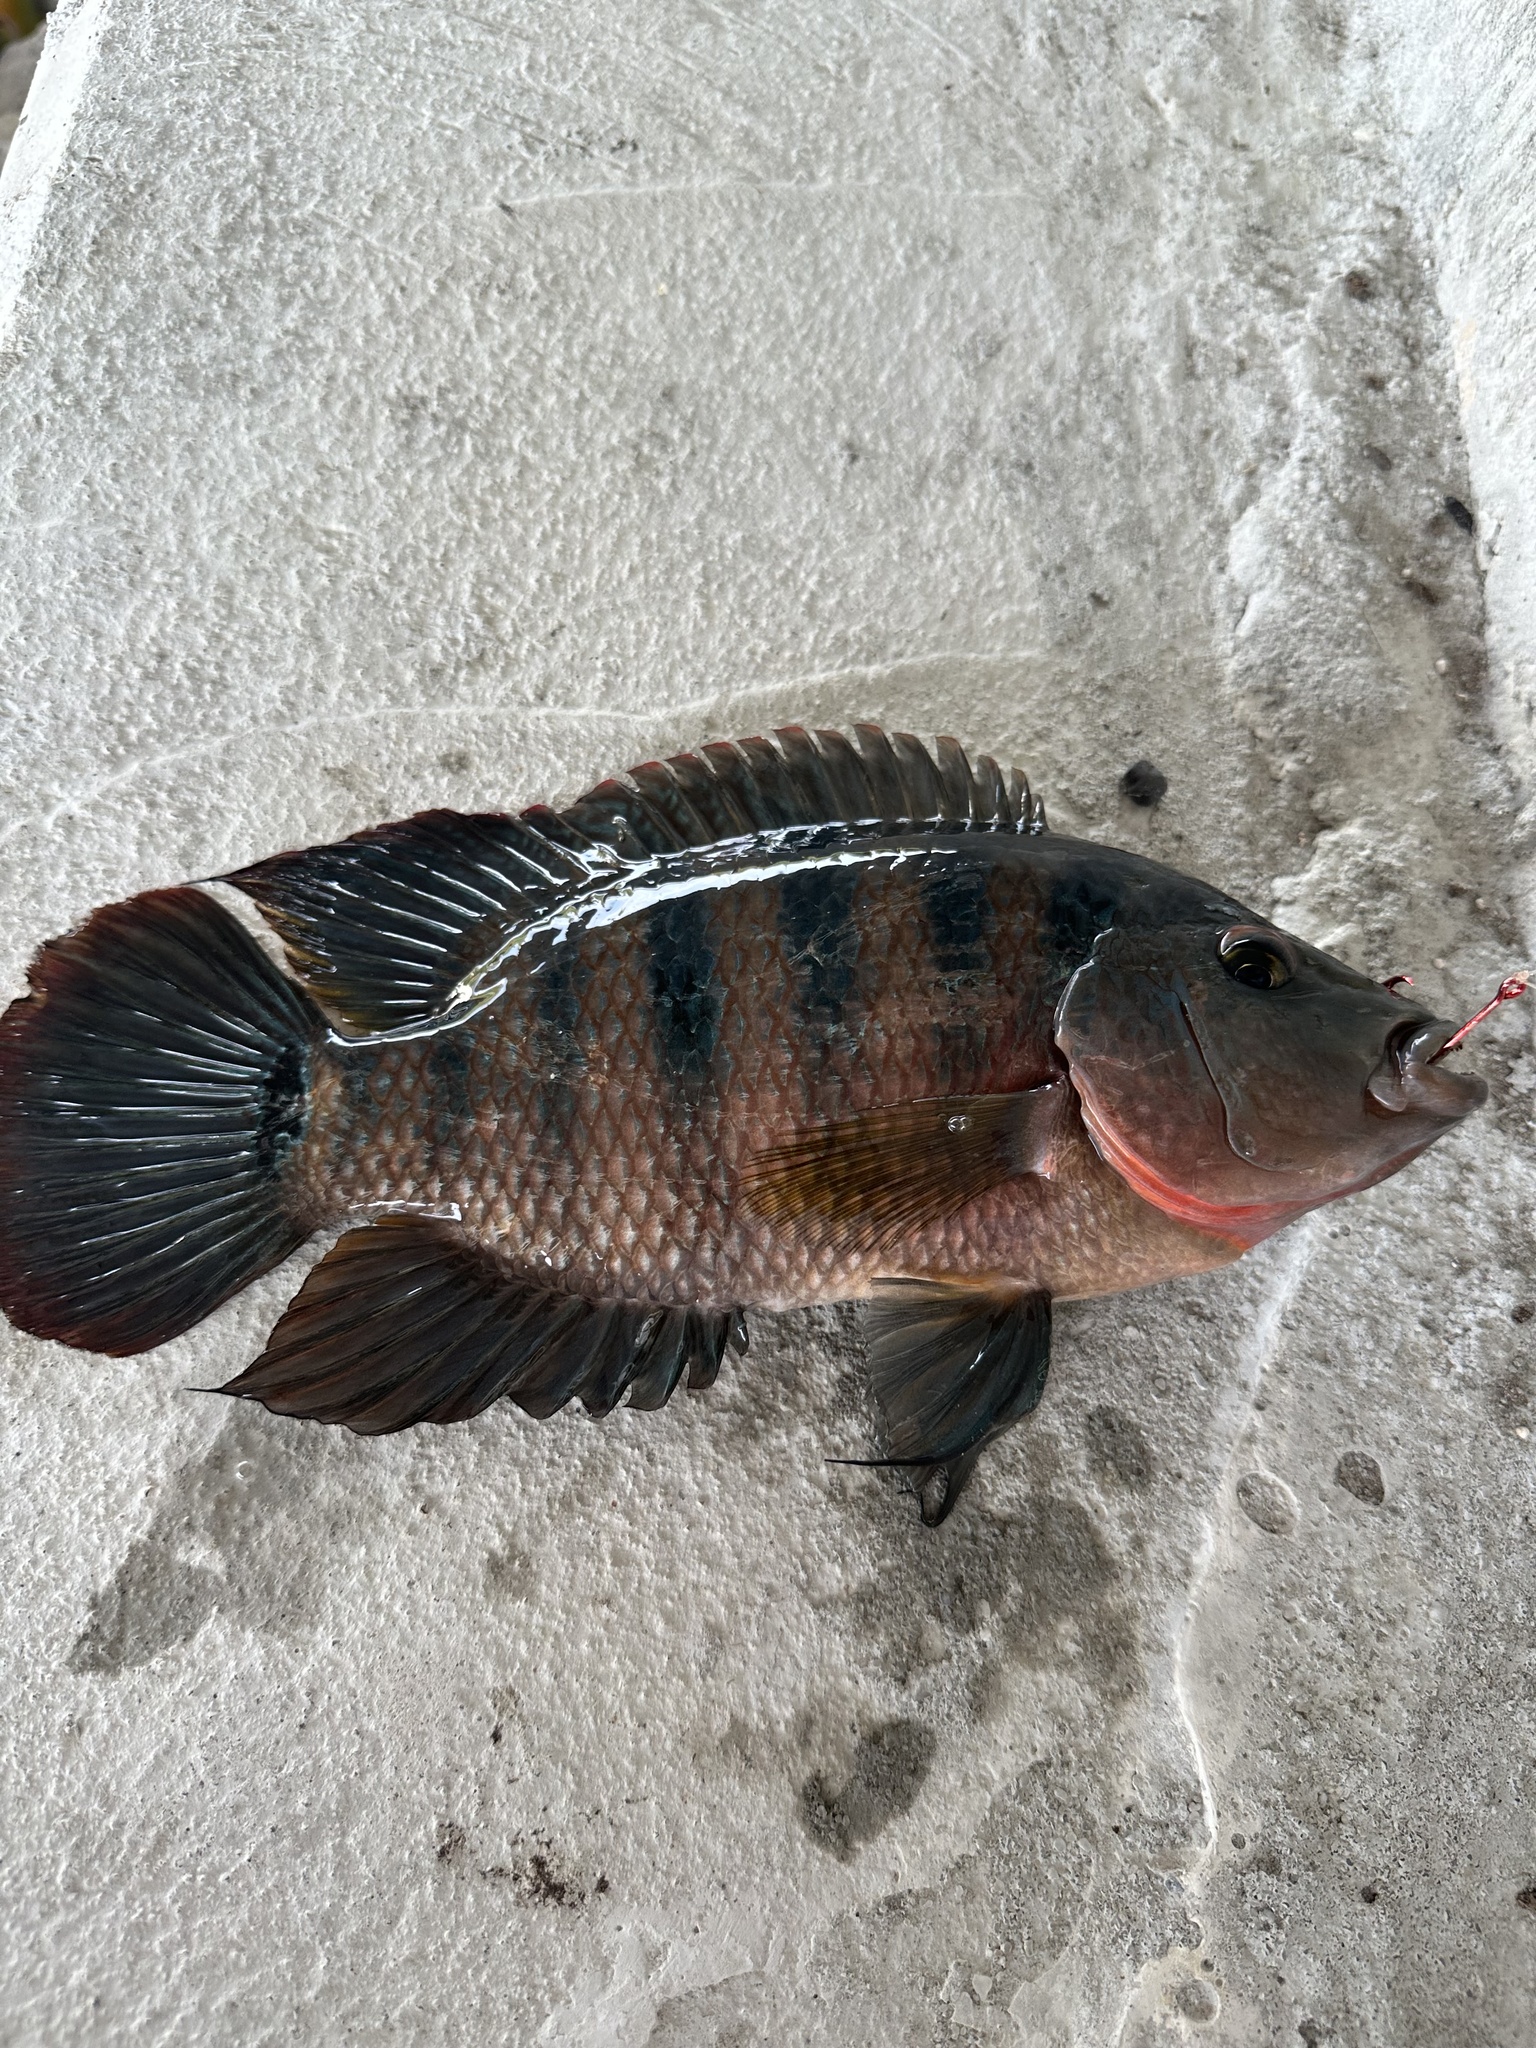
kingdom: Animalia
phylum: Chordata
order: Perciformes
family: Cichlidae
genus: Mayaheros
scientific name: Mayaheros urophthalmus
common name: Mayan cichlid
